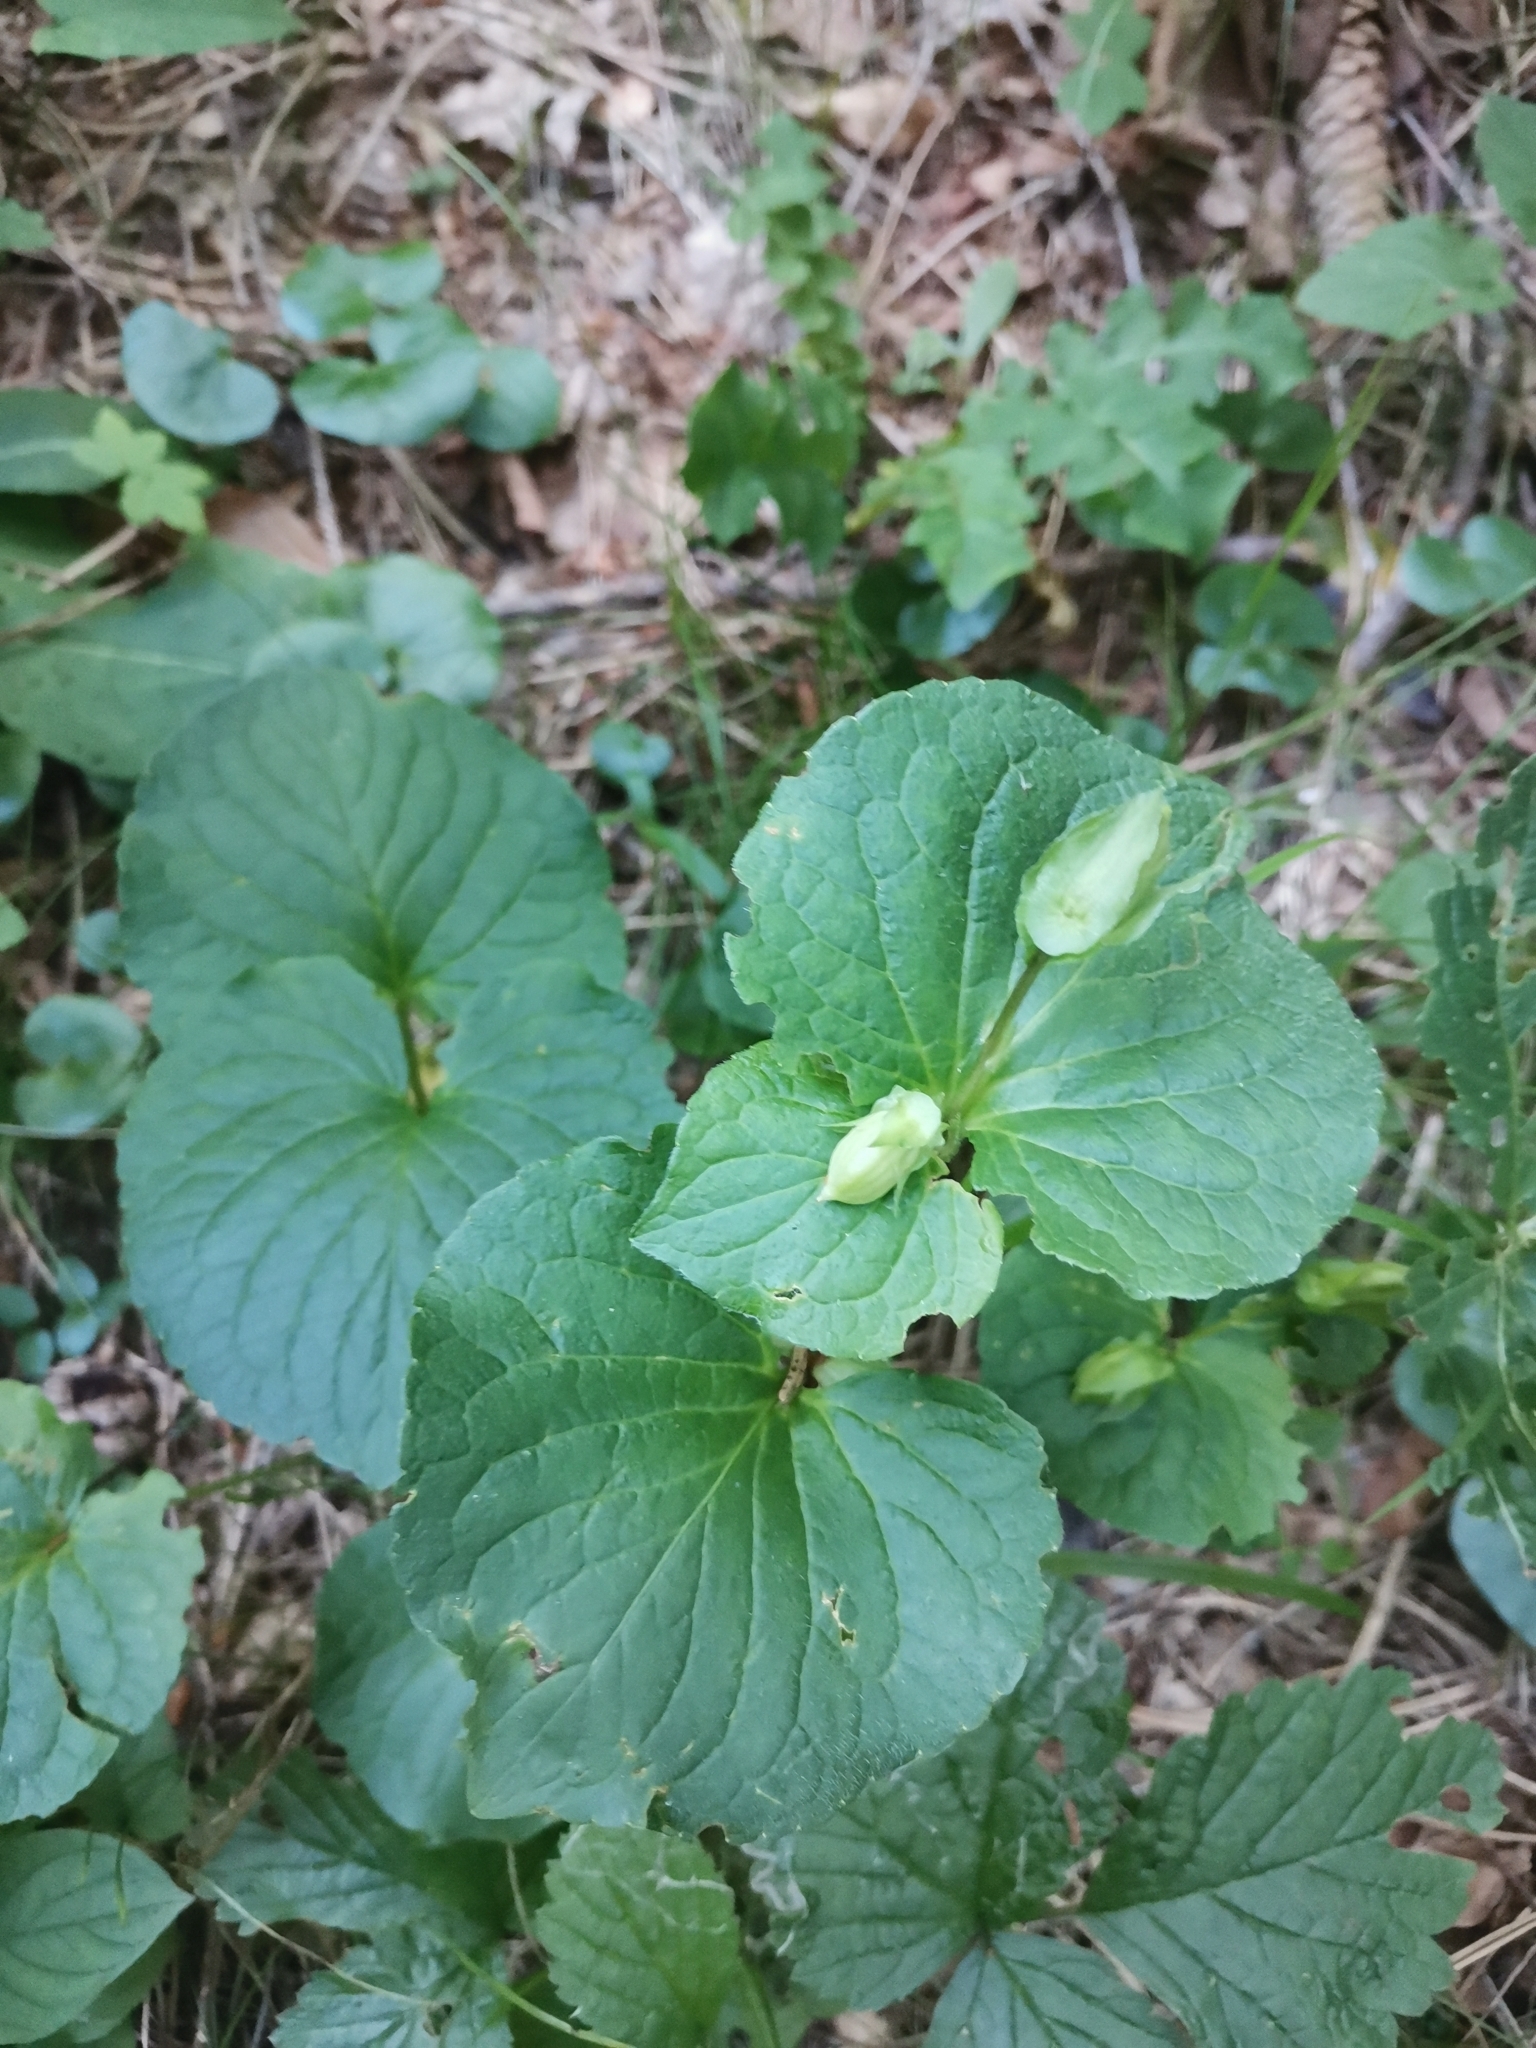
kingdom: Plantae
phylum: Tracheophyta
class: Magnoliopsida
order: Malpighiales
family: Violaceae
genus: Viola
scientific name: Viola mirabilis
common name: Wonder violet
